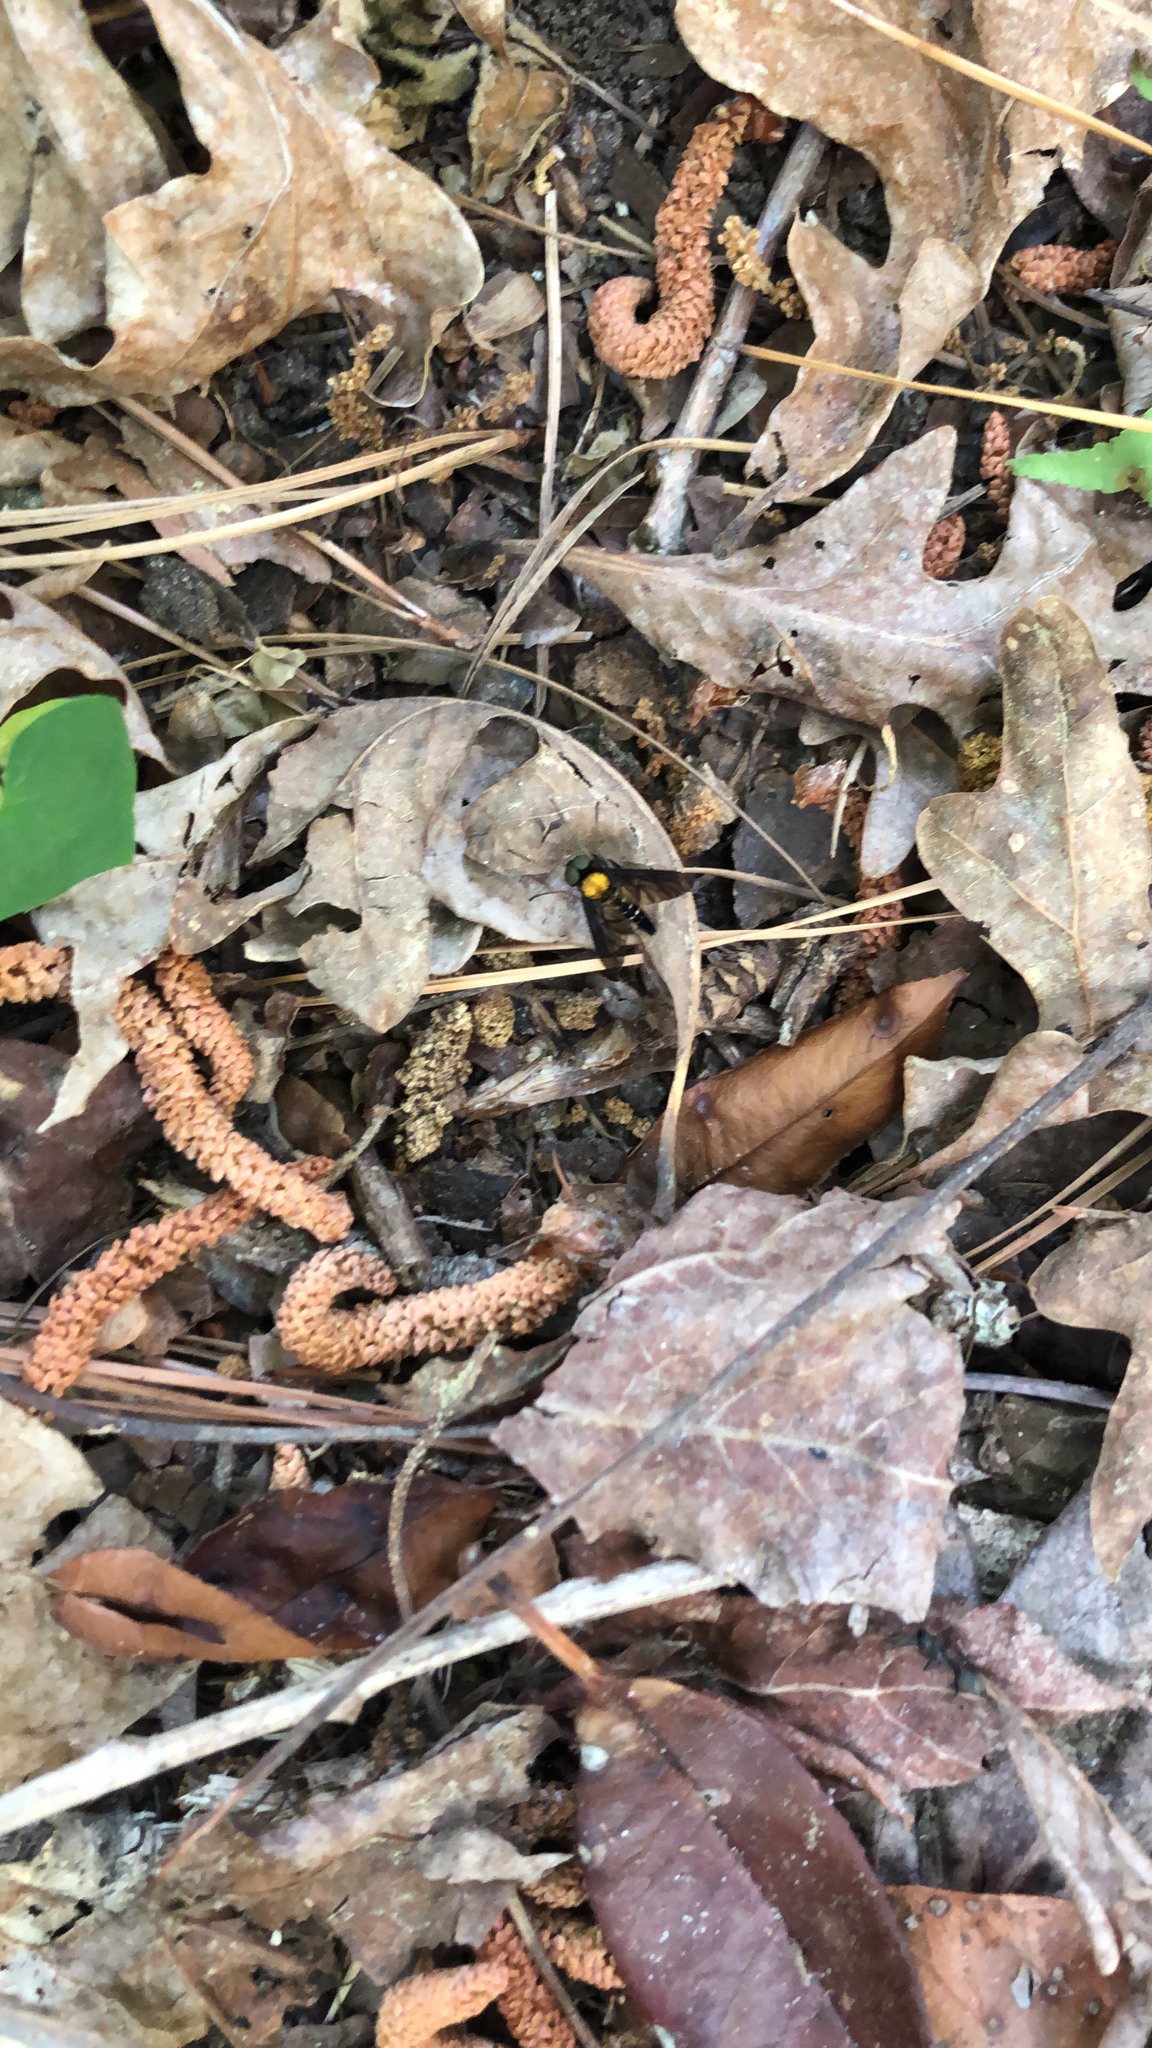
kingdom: Animalia
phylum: Arthropoda
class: Insecta
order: Diptera
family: Rhagionidae
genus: Chrysopilus
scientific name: Chrysopilus thoracicus
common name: Golden-backed snipe fly
